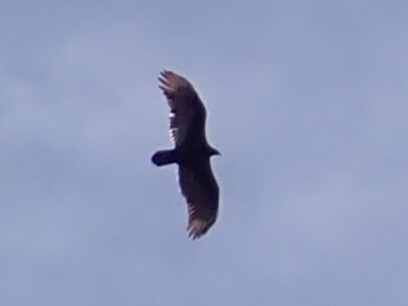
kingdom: Animalia
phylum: Chordata
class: Aves
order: Accipitriformes
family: Cathartidae
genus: Cathartes
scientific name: Cathartes aura
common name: Turkey vulture
